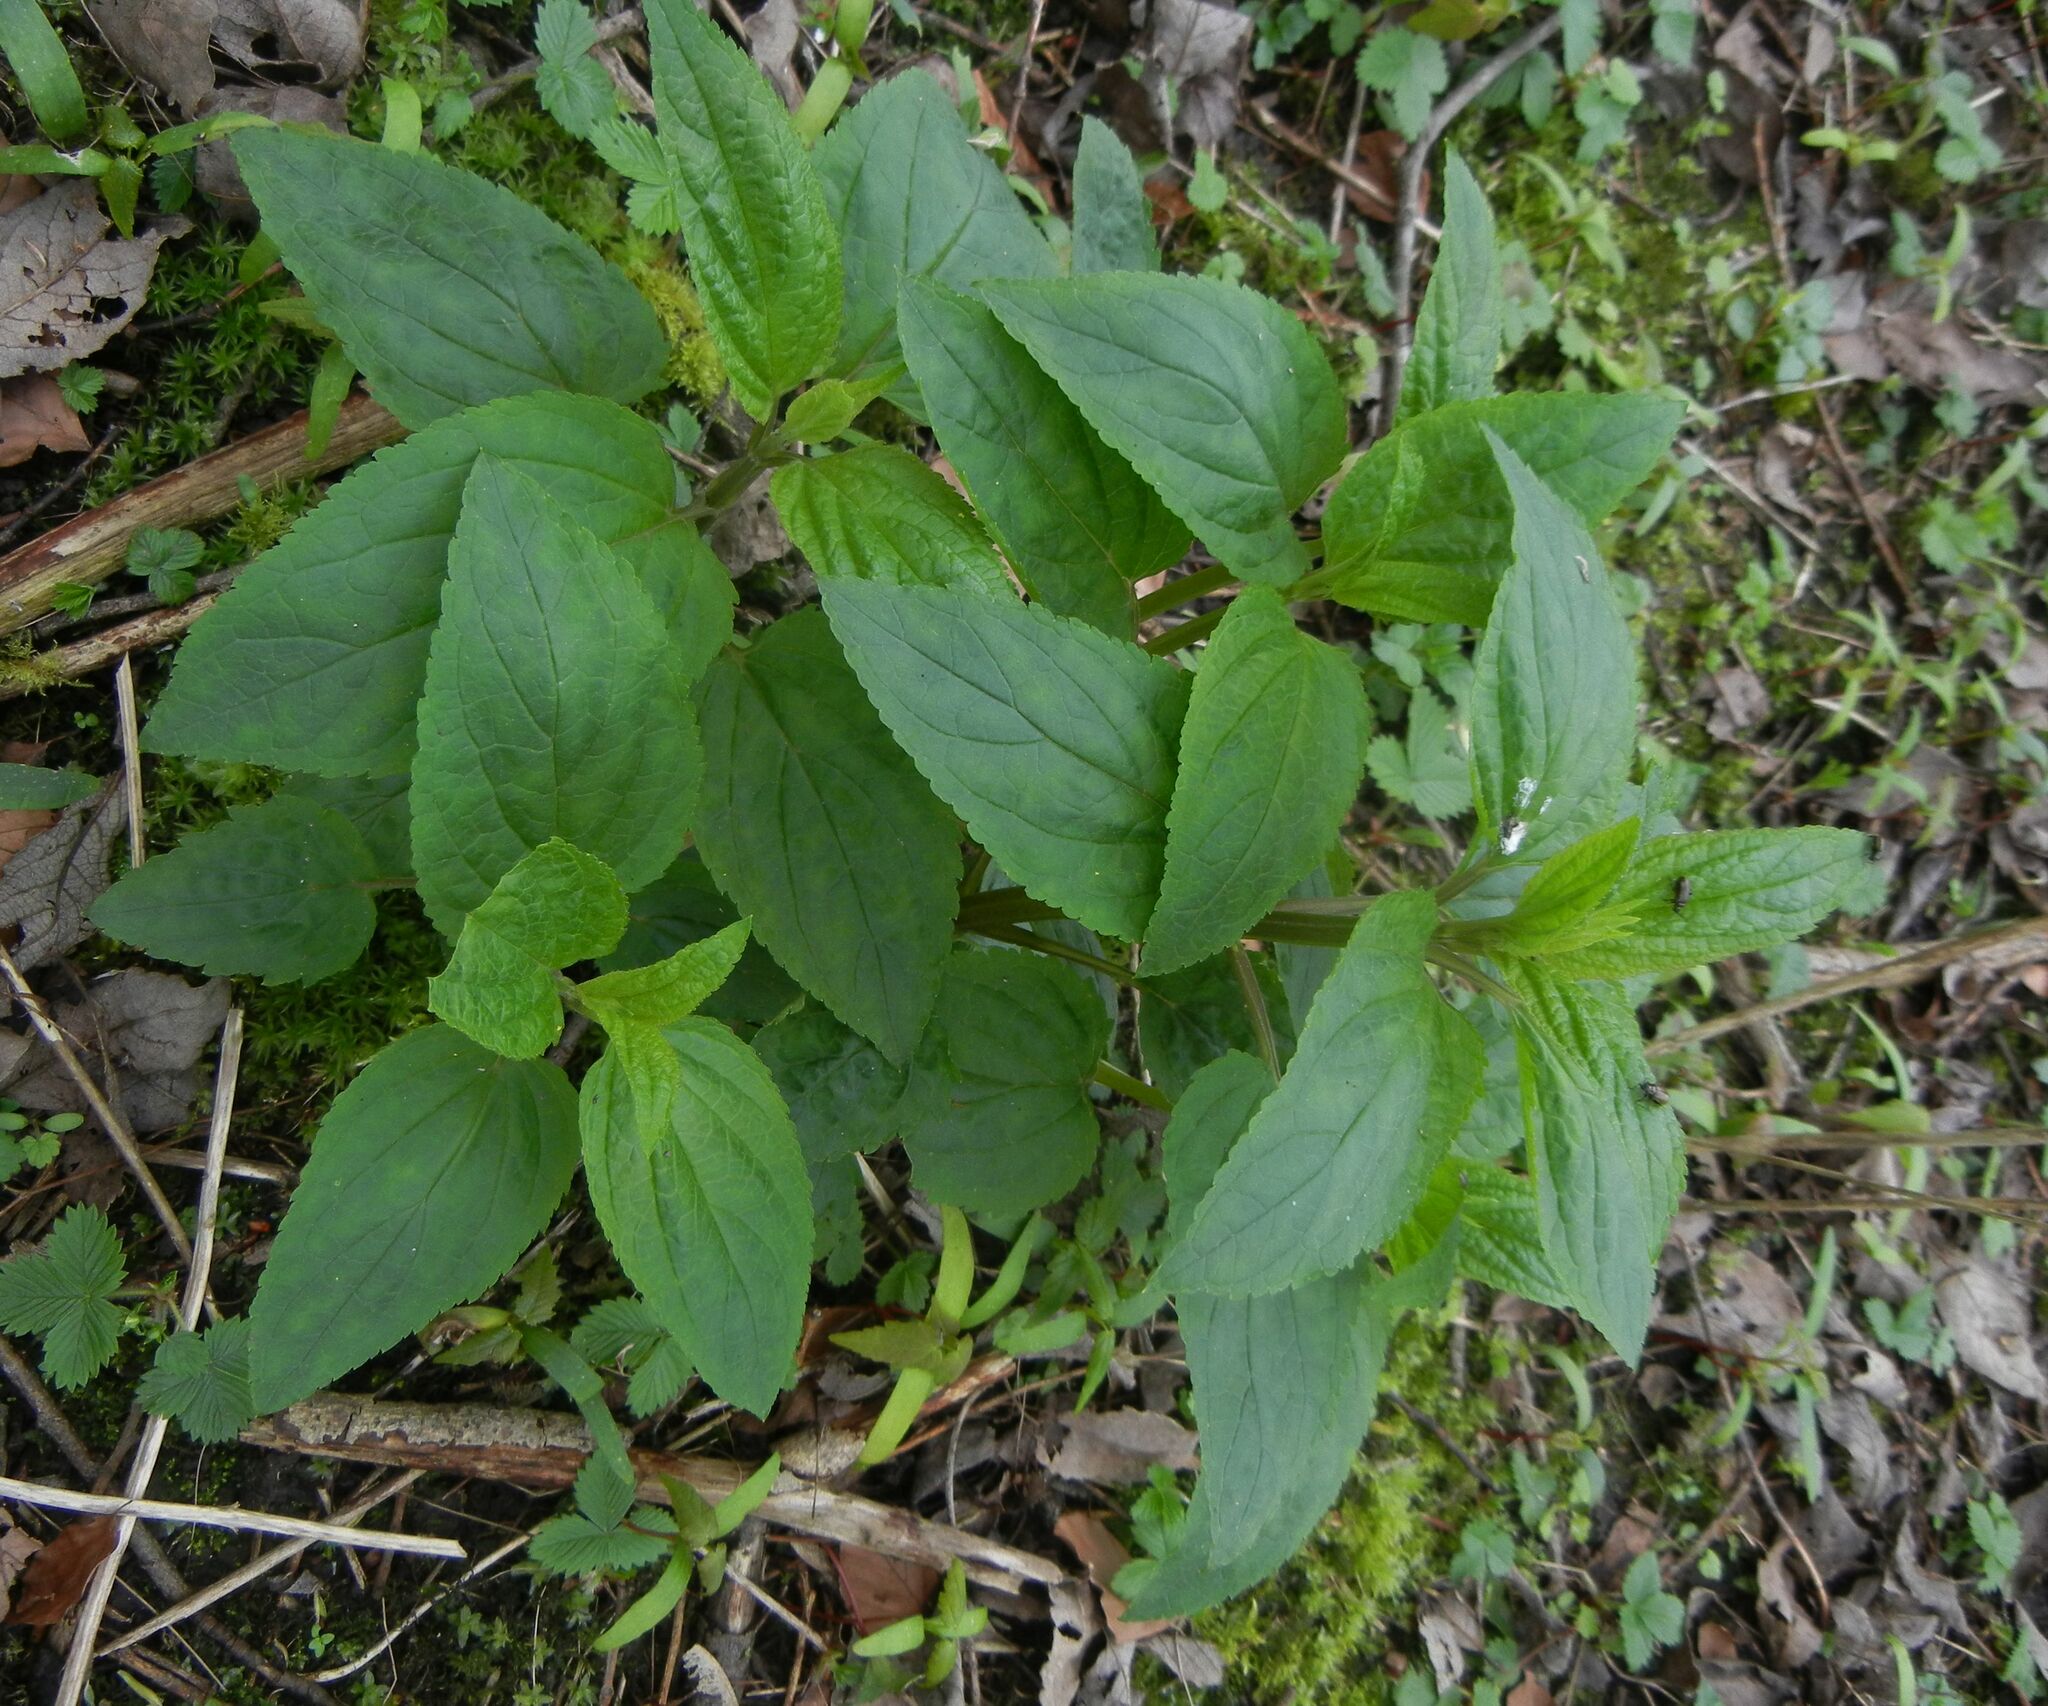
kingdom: Plantae
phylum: Tracheophyta
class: Magnoliopsida
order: Lamiales
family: Scrophulariaceae
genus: Scrophularia
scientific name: Scrophularia nodosa
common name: Common figwort
